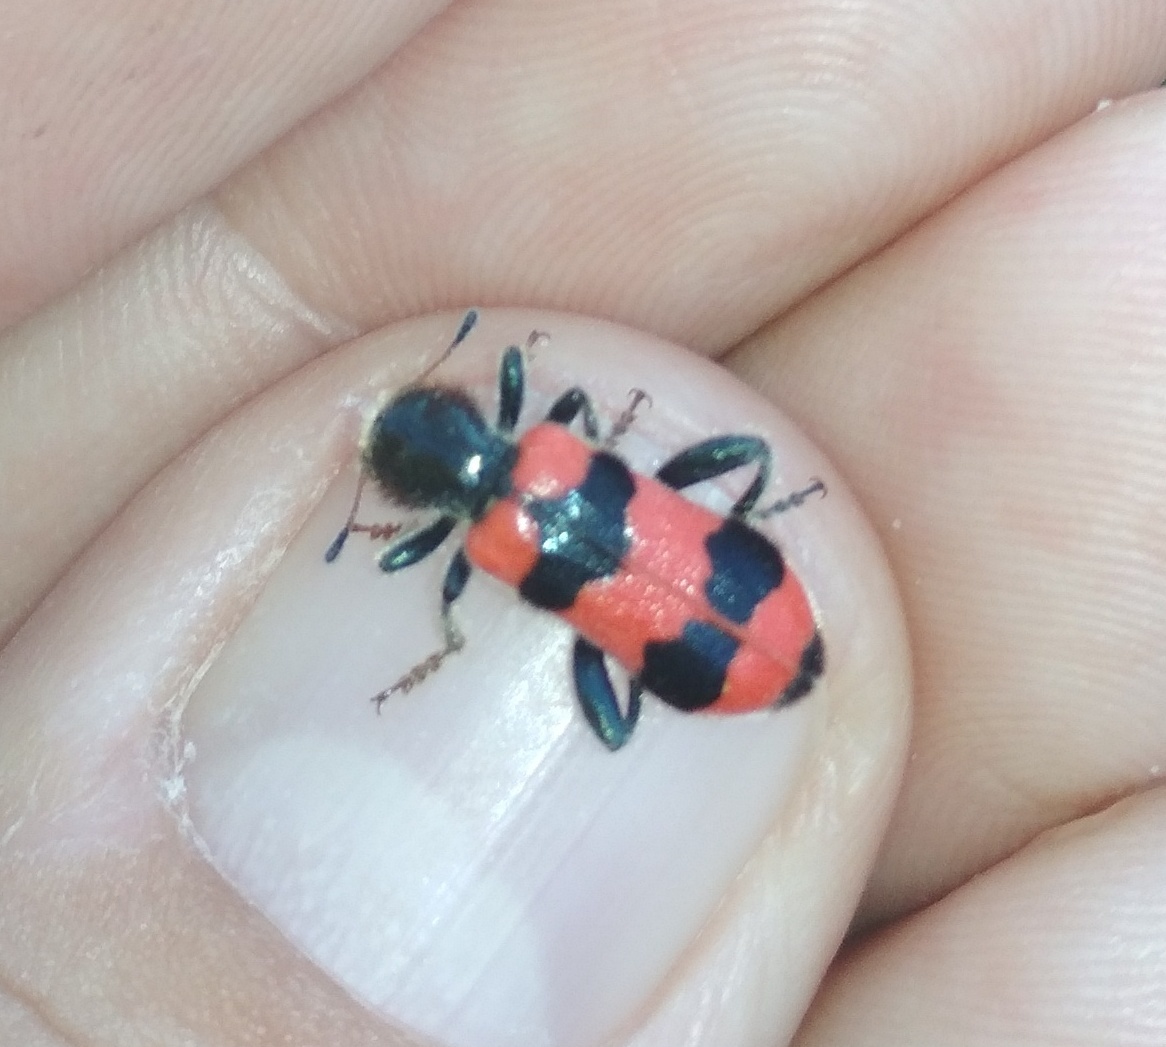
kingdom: Animalia
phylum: Arthropoda
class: Insecta
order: Coleoptera
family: Cleridae
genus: Trichodes
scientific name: Trichodes apiarius
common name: Bee-eating beetle
